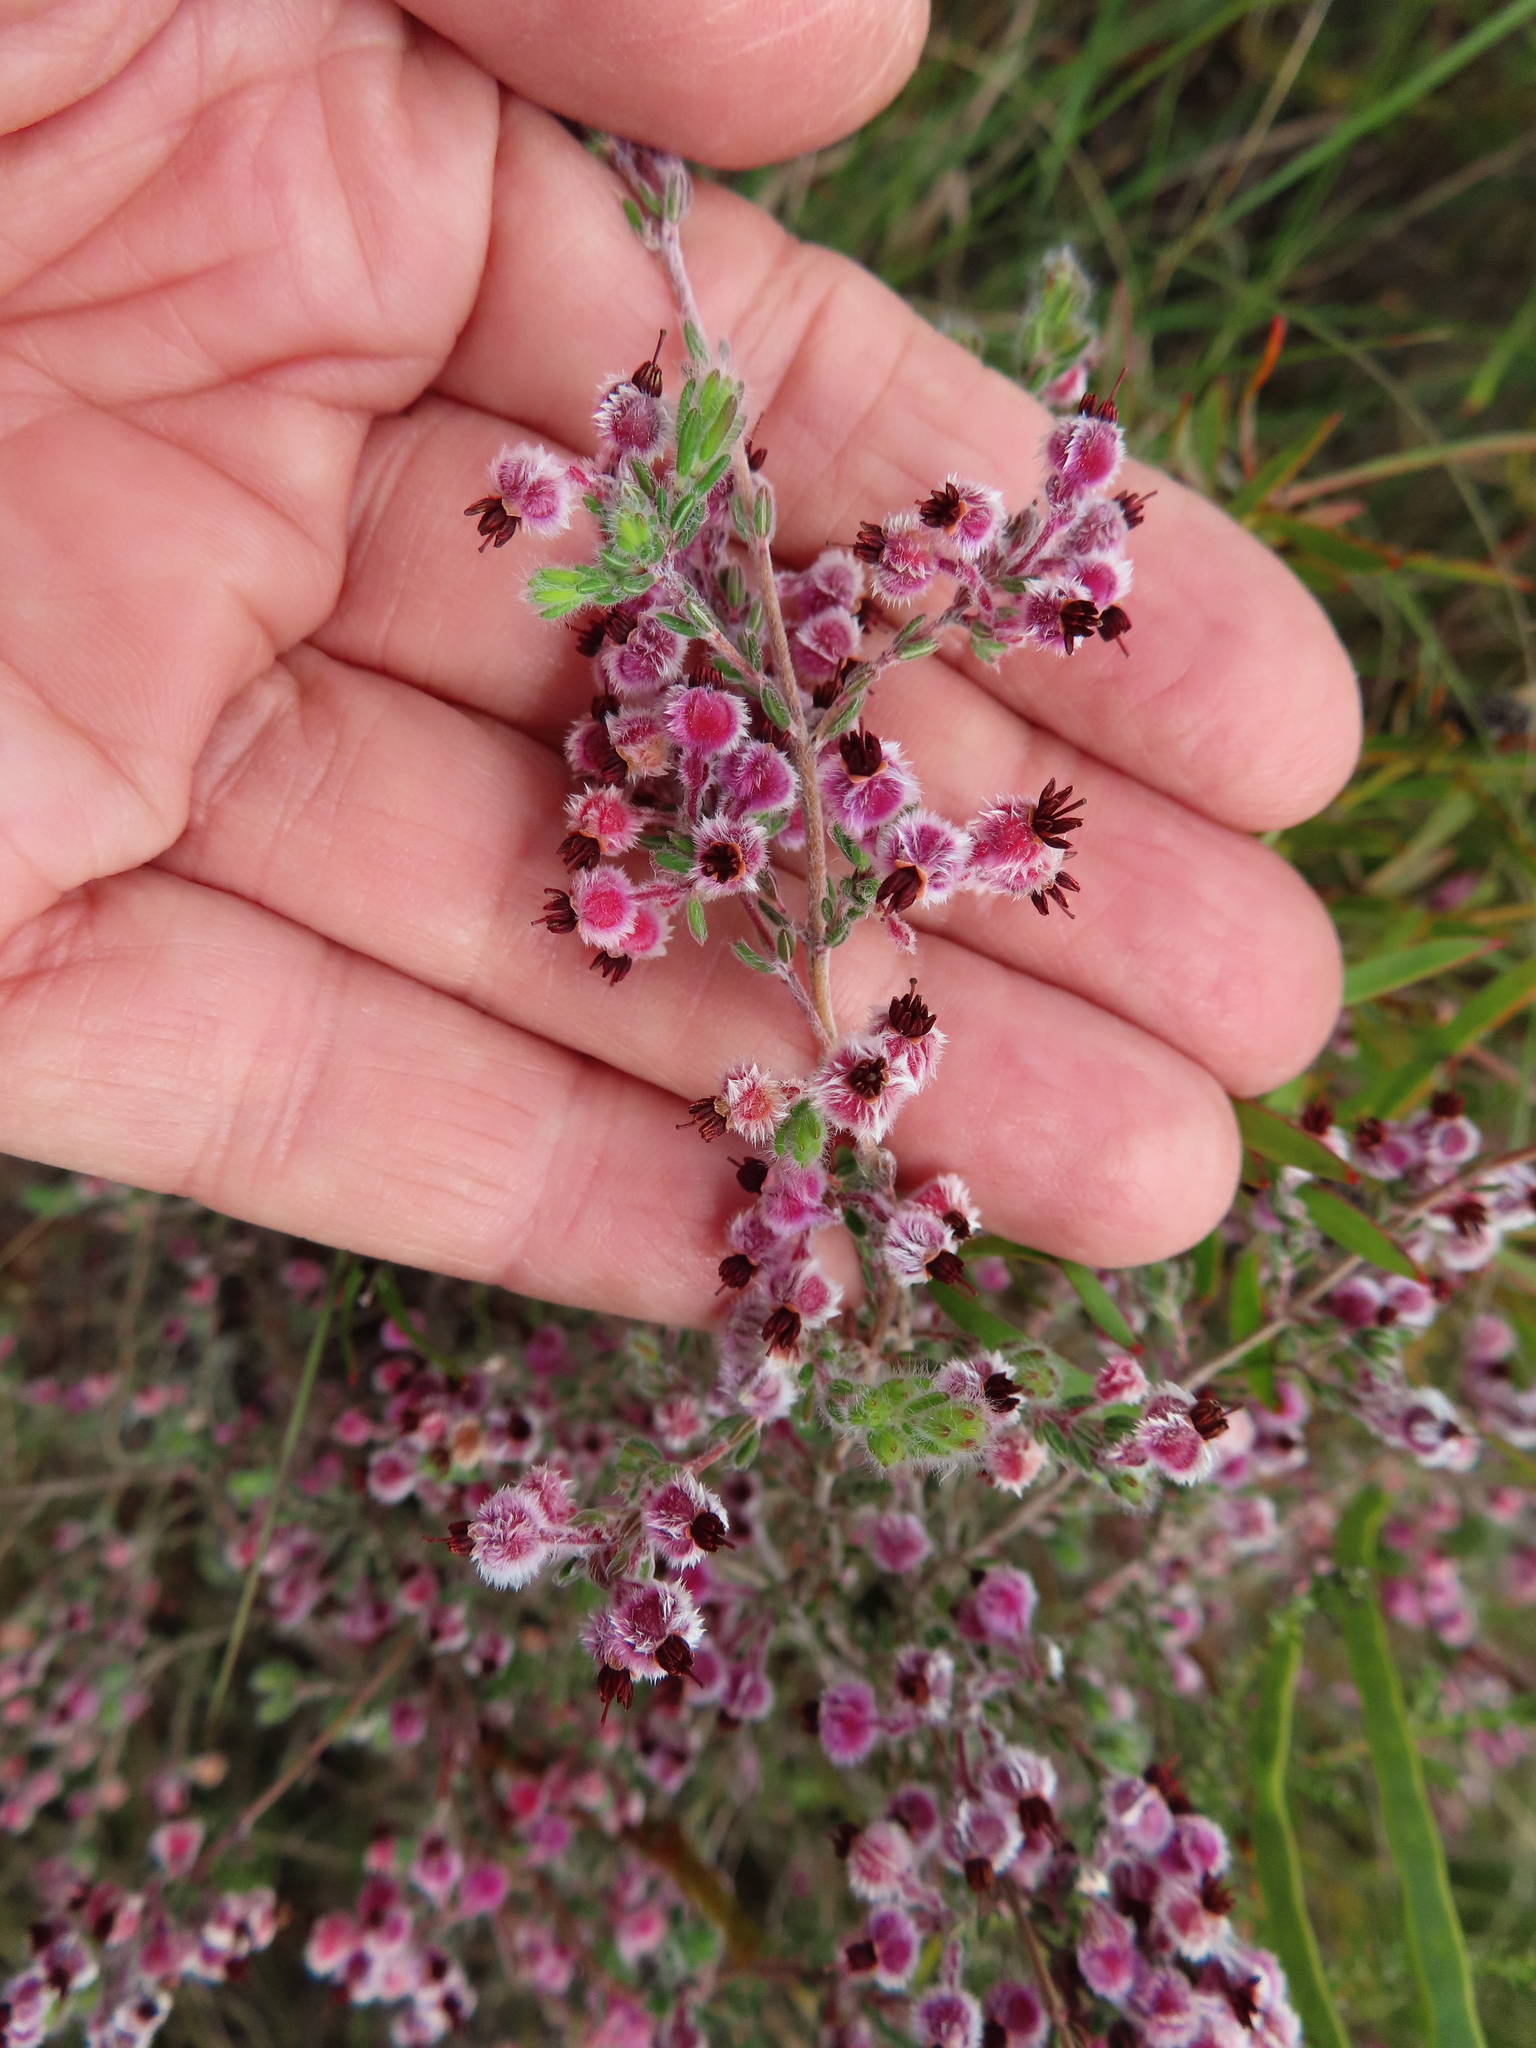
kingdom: Plantae
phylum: Tracheophyta
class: Magnoliopsida
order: Ericales
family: Ericaceae
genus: Erica
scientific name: Erica bruniades
